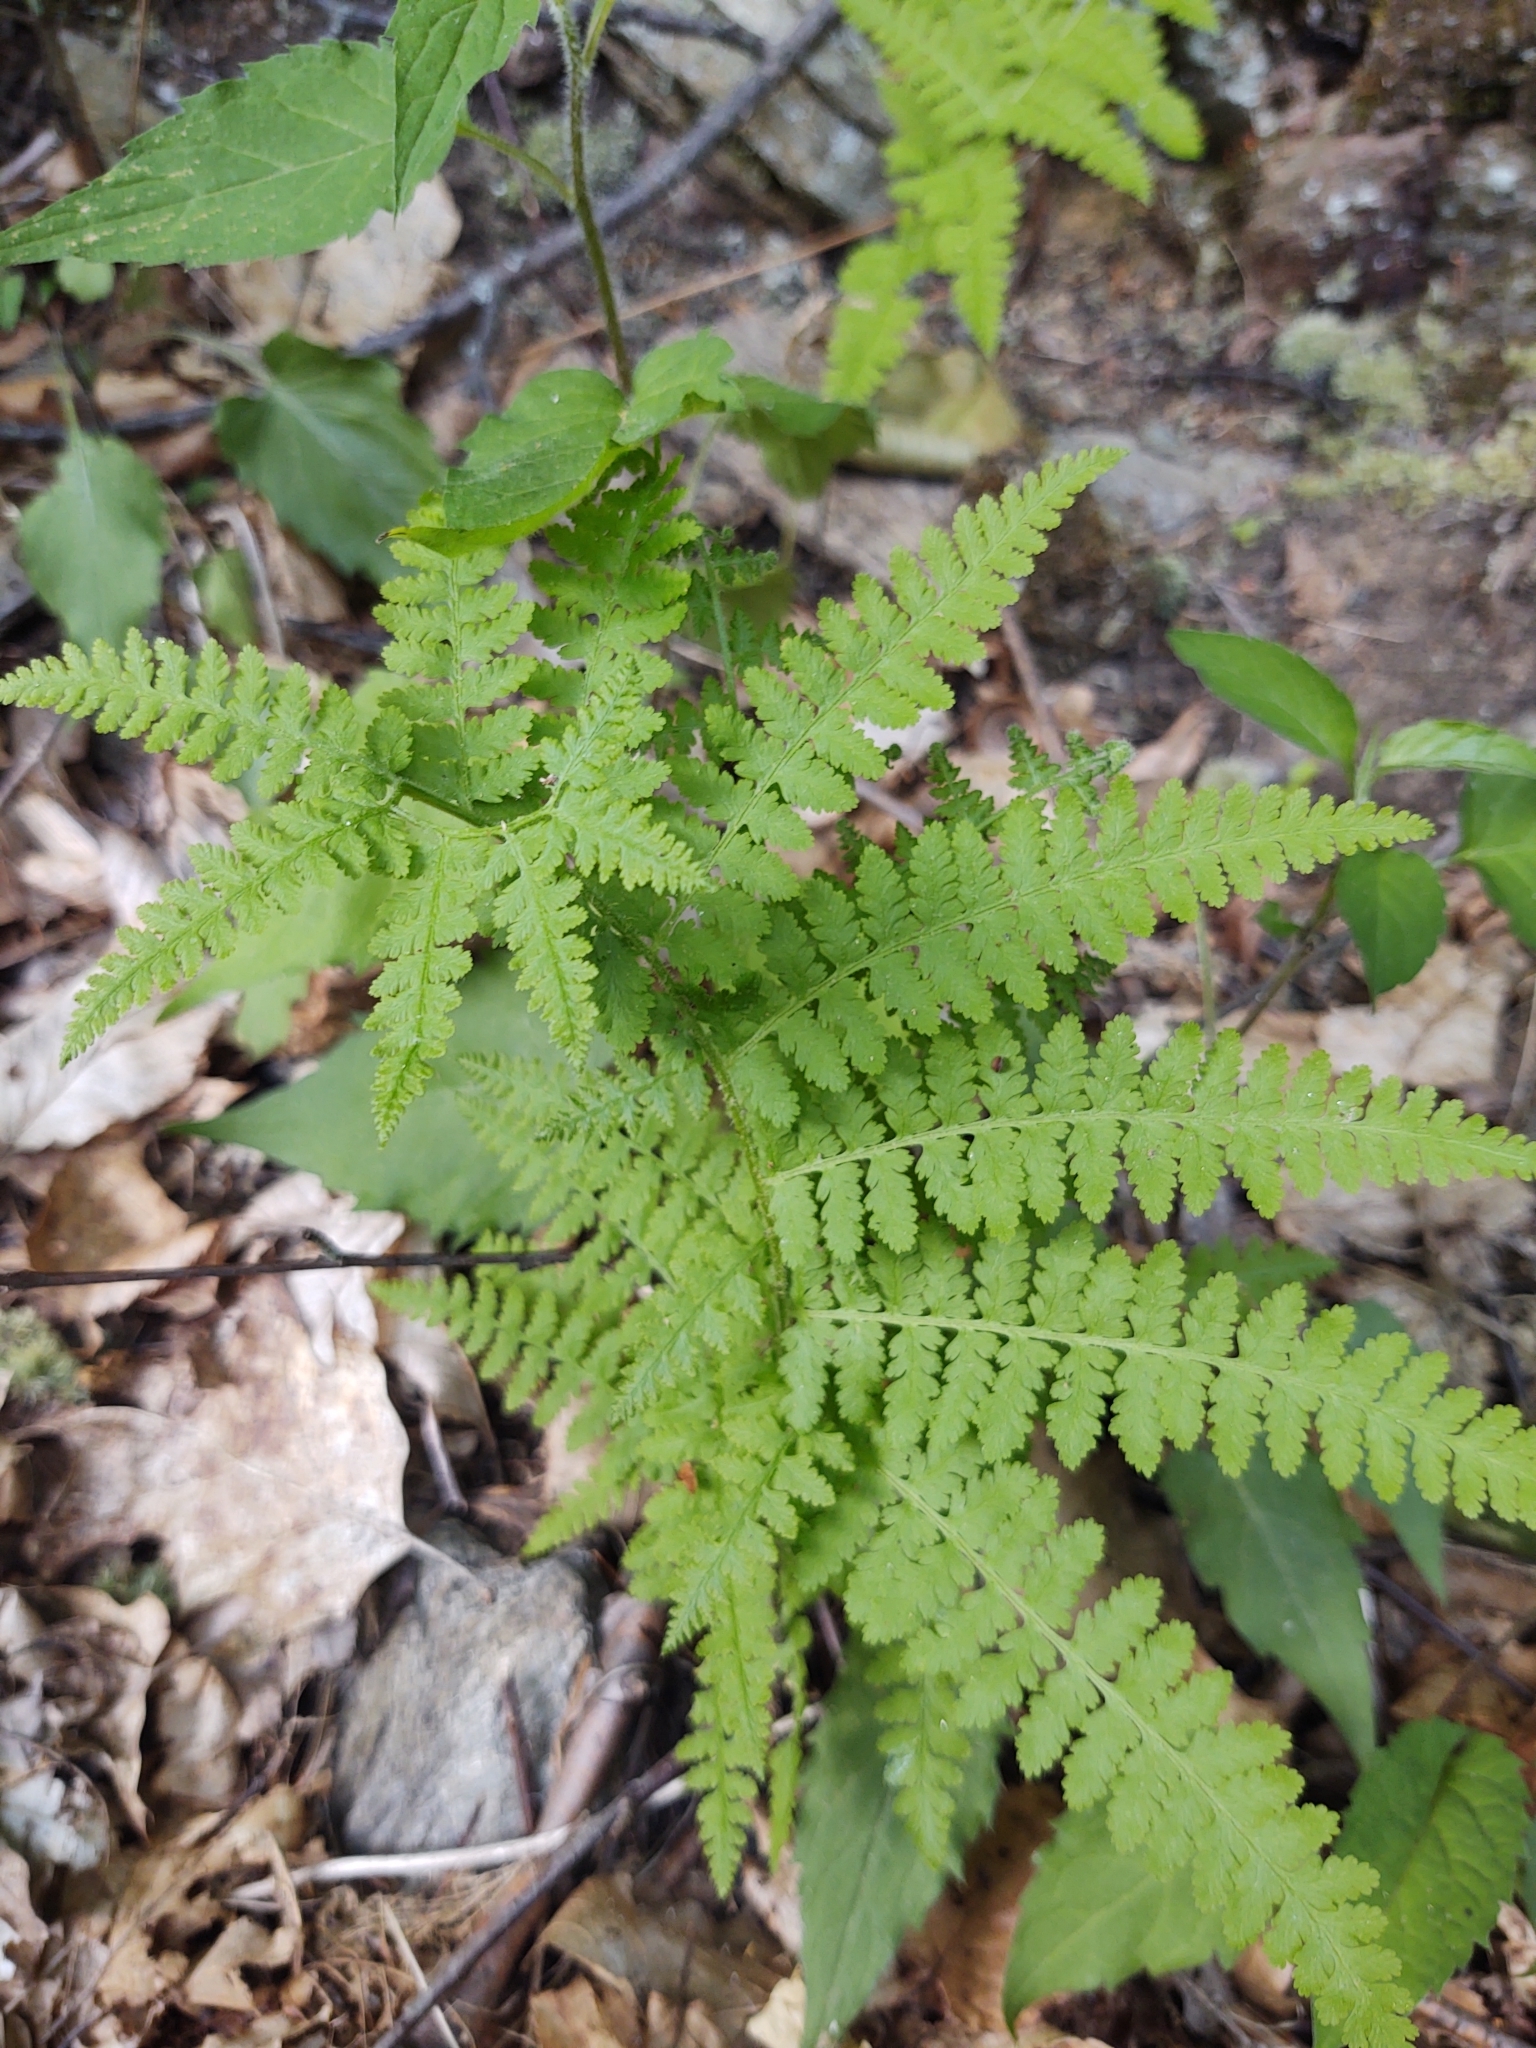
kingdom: Plantae
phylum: Tracheophyta
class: Polypodiopsida
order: Polypodiales
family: Dennstaedtiaceae
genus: Sitobolium
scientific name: Sitobolium punctilobum
